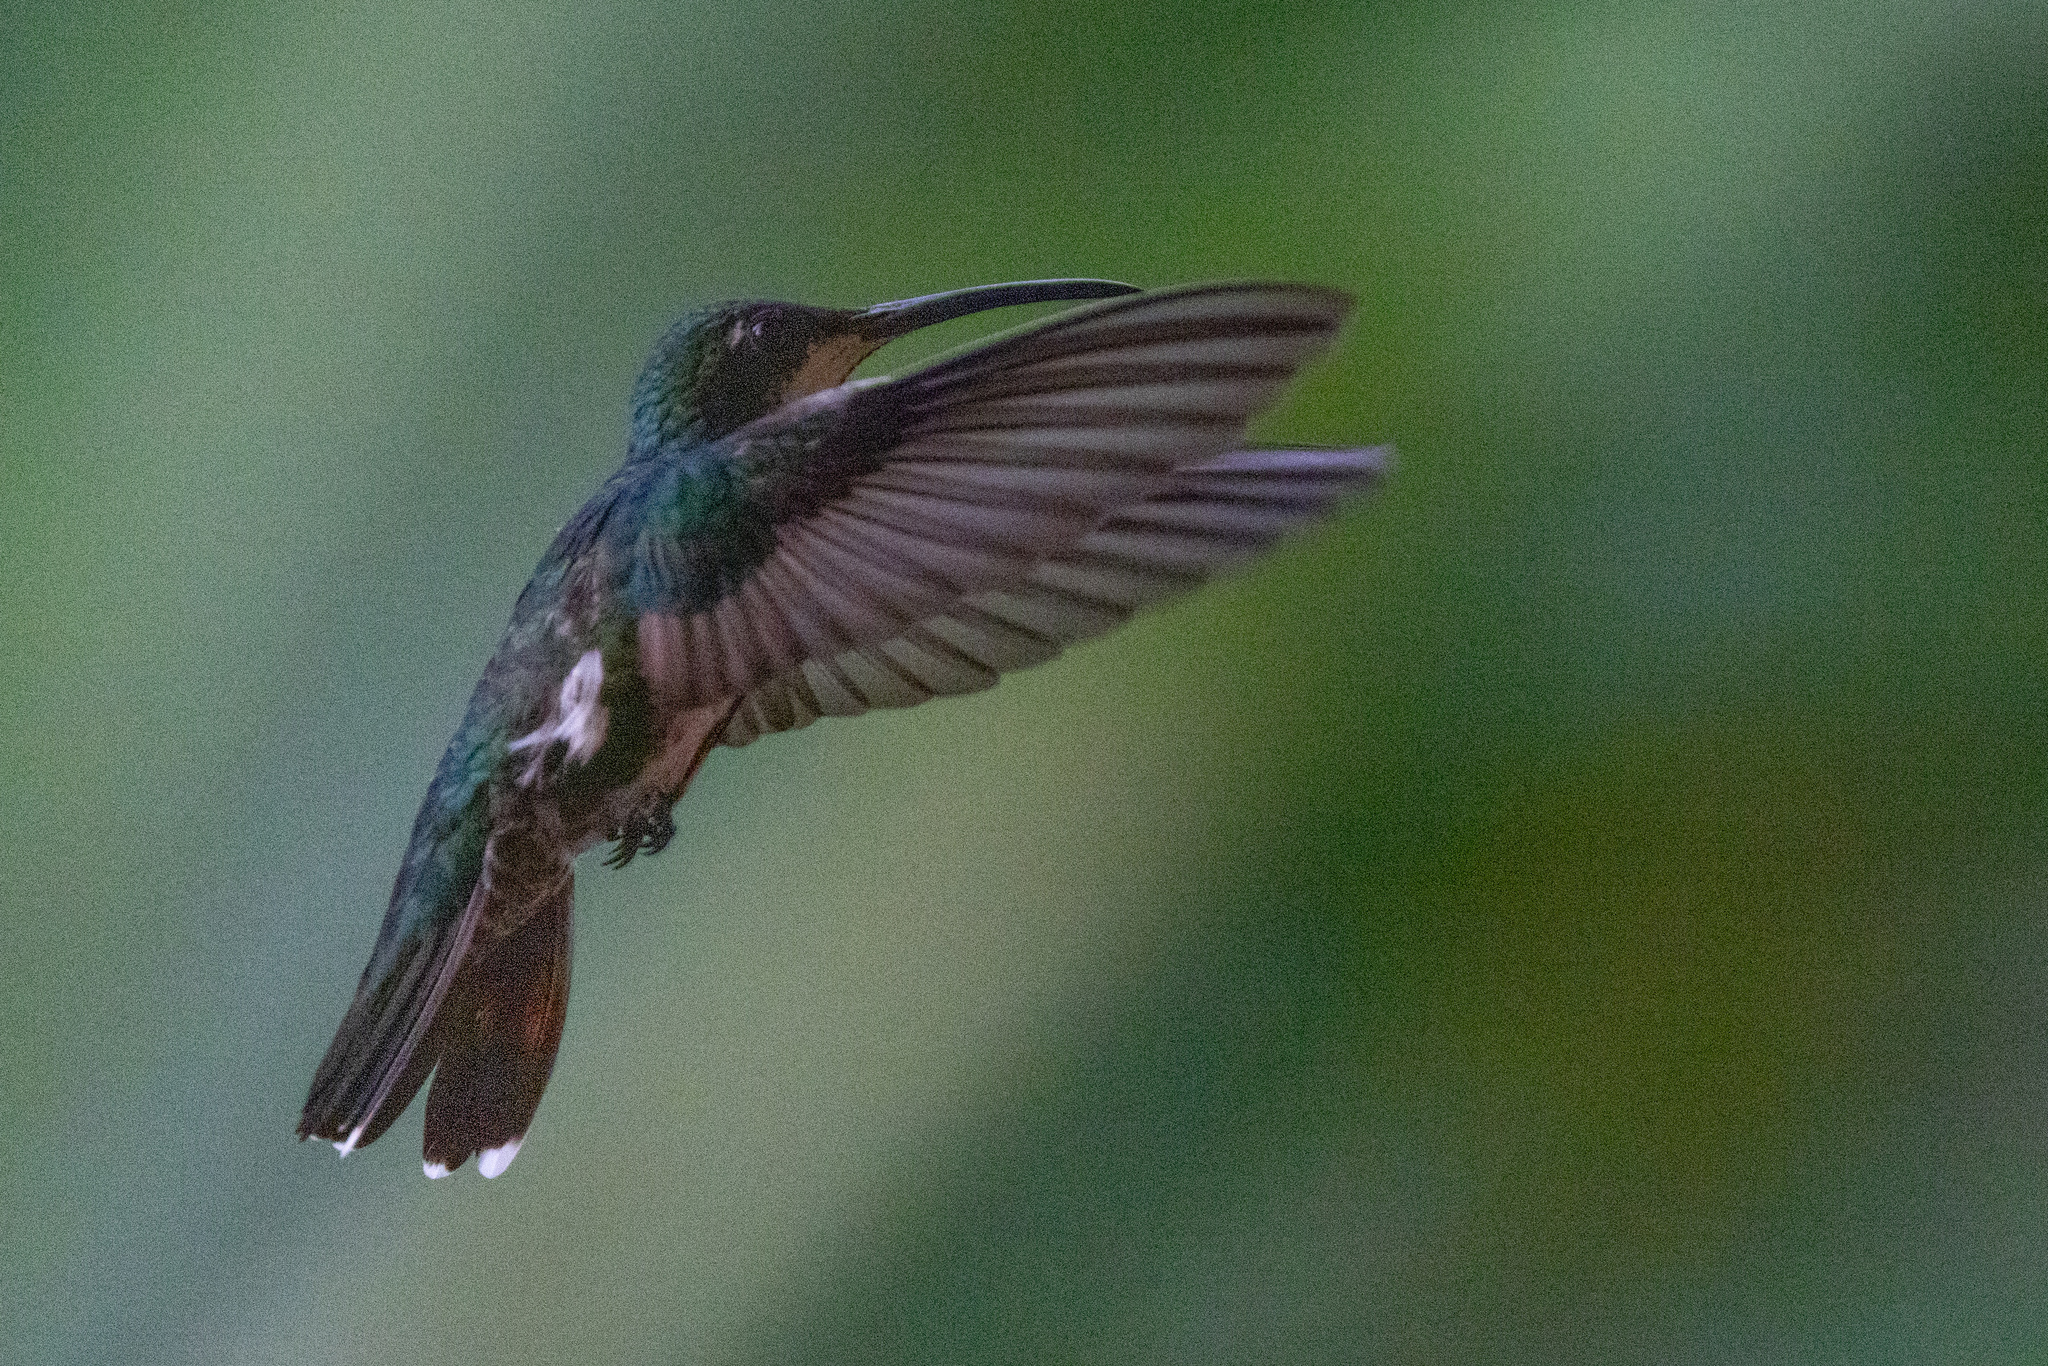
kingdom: Animalia
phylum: Chordata
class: Aves
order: Apodiformes
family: Trochilidae
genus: Anthracothorax
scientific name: Anthracothorax nigricollis
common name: Black-throated mango
